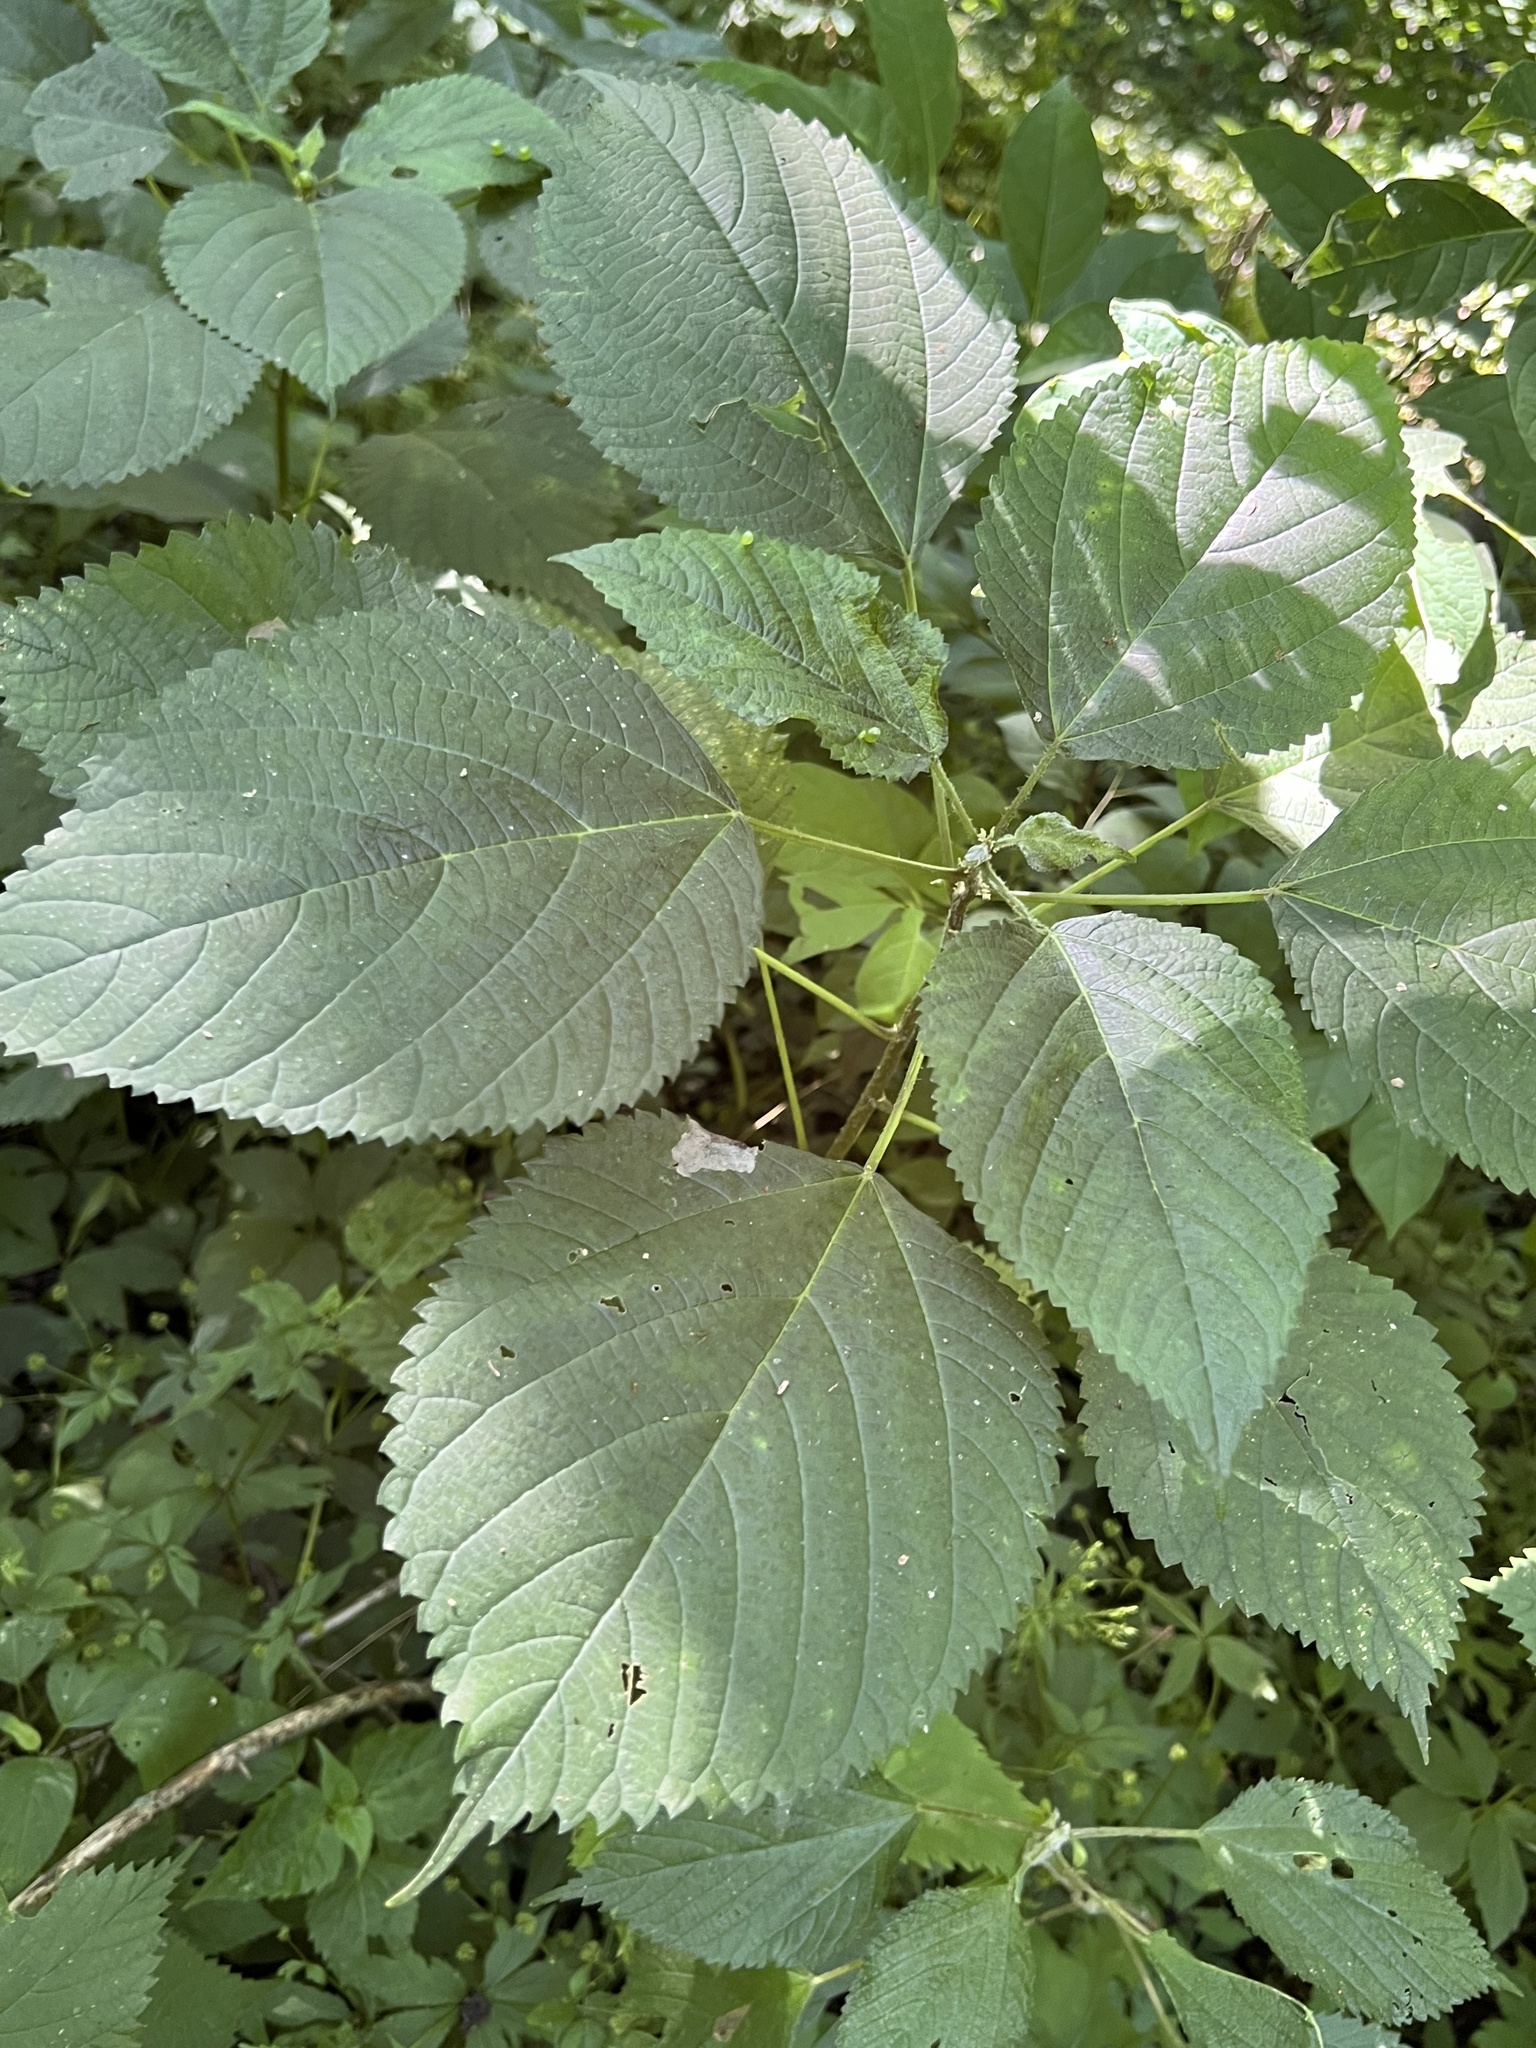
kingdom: Animalia
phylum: Arthropoda
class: Insecta
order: Diptera
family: Agromyzidae
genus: Agromyza
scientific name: Agromyza diversa
